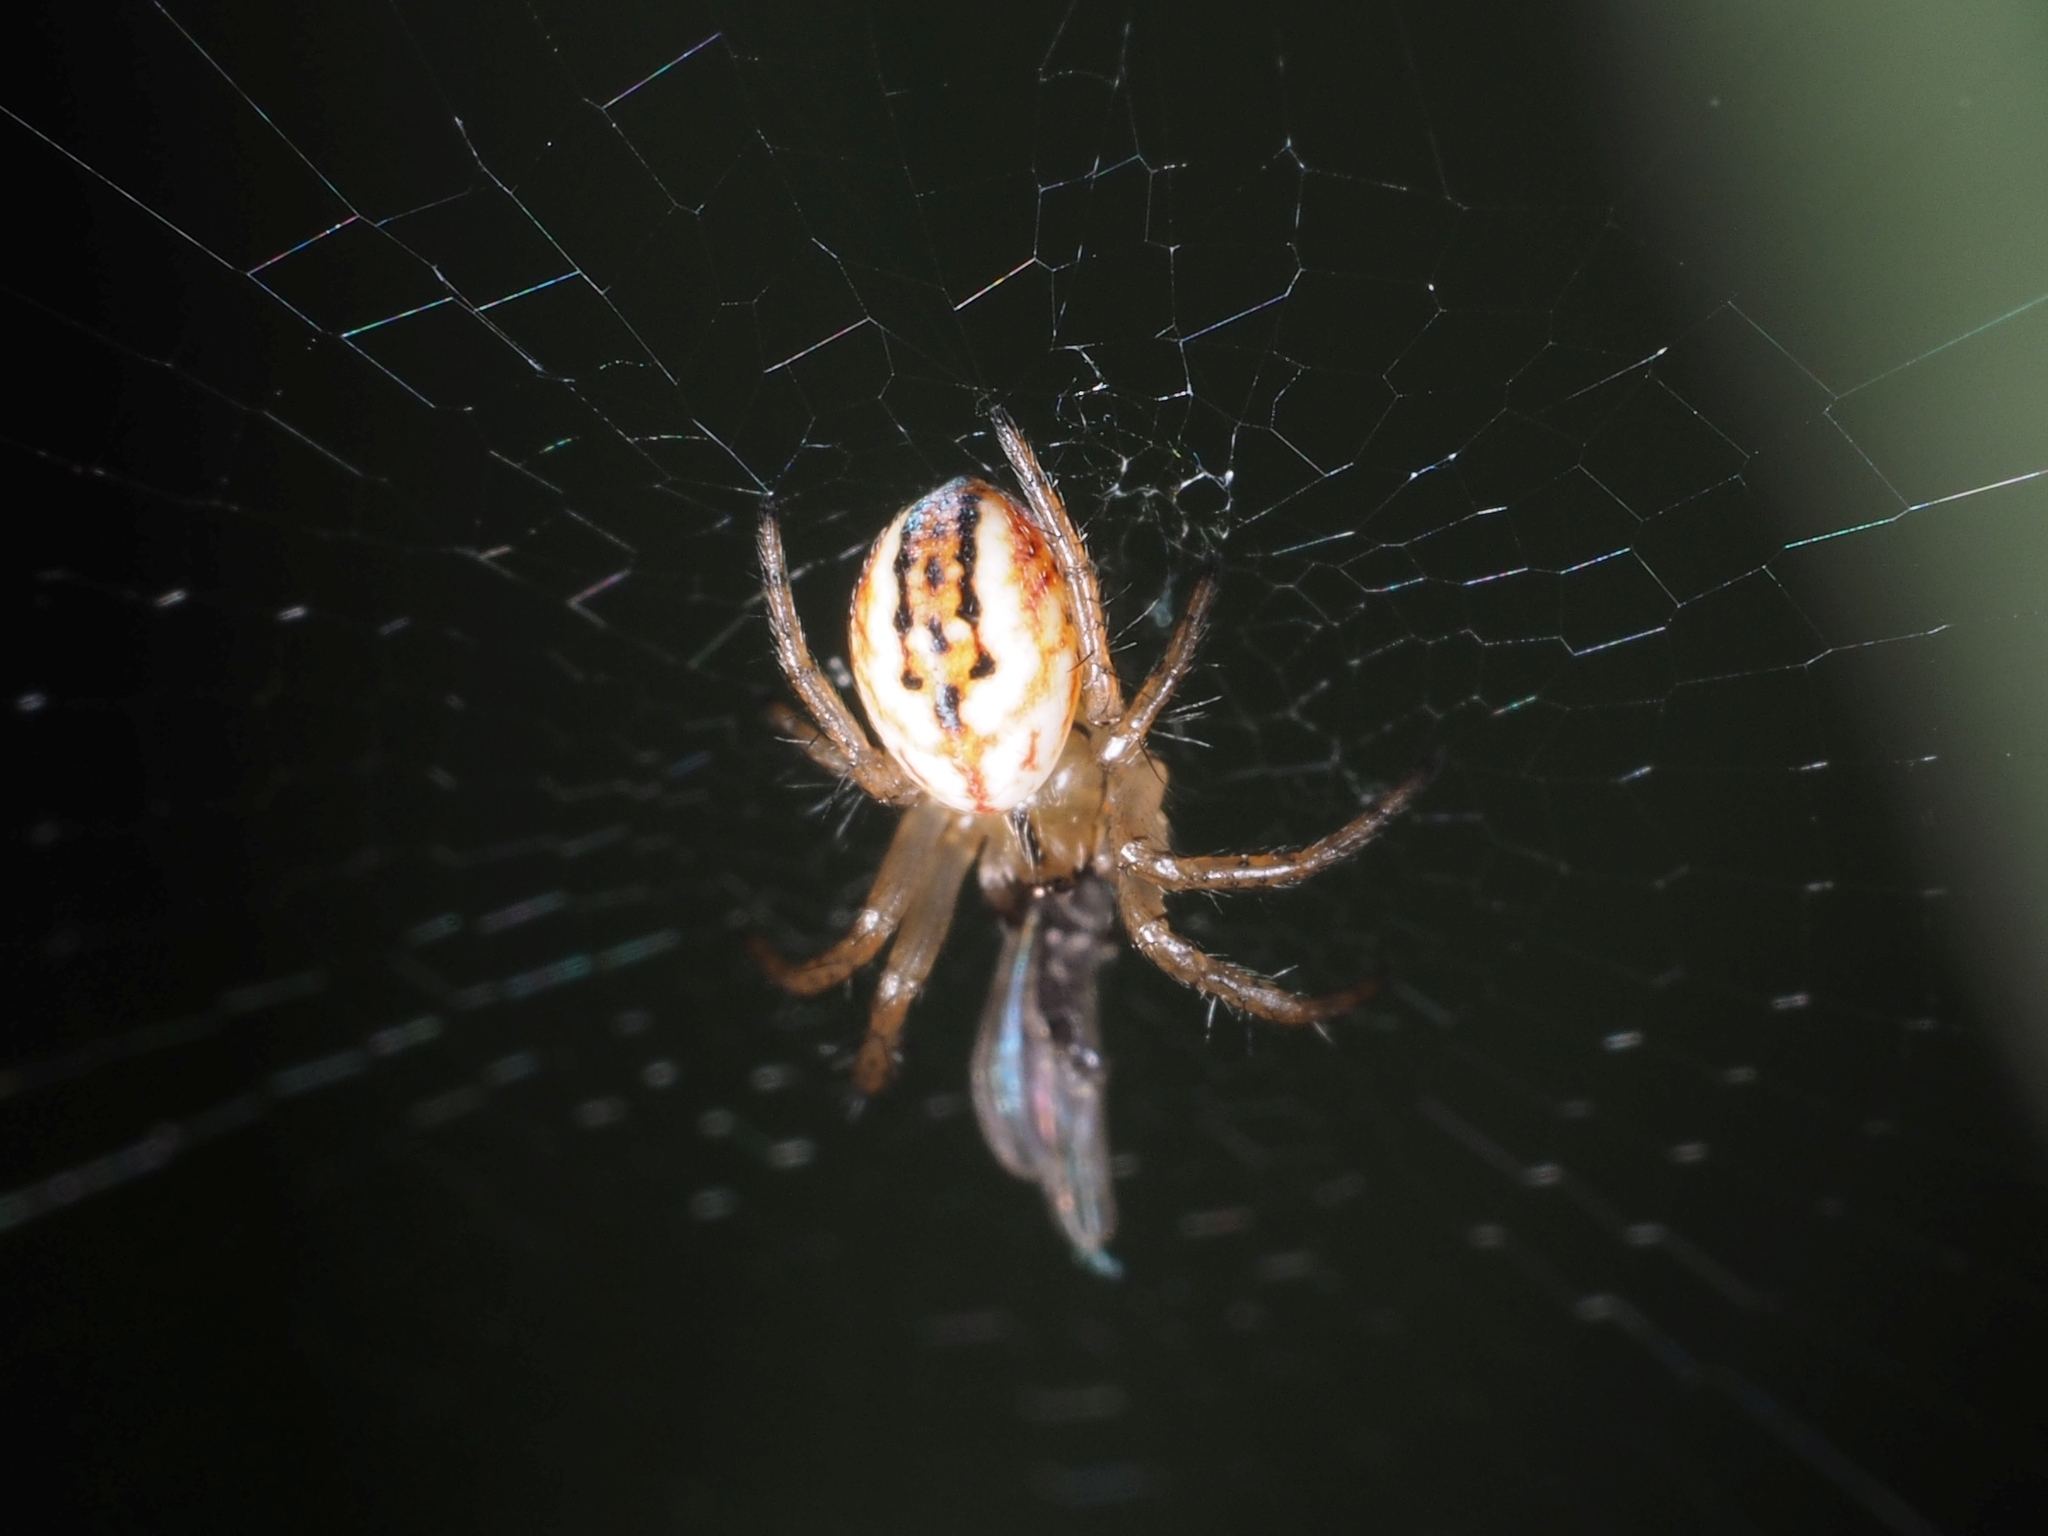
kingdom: Animalia
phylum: Arthropoda
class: Arachnida
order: Araneae
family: Araneidae
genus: Mangora
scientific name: Mangora acalypha
